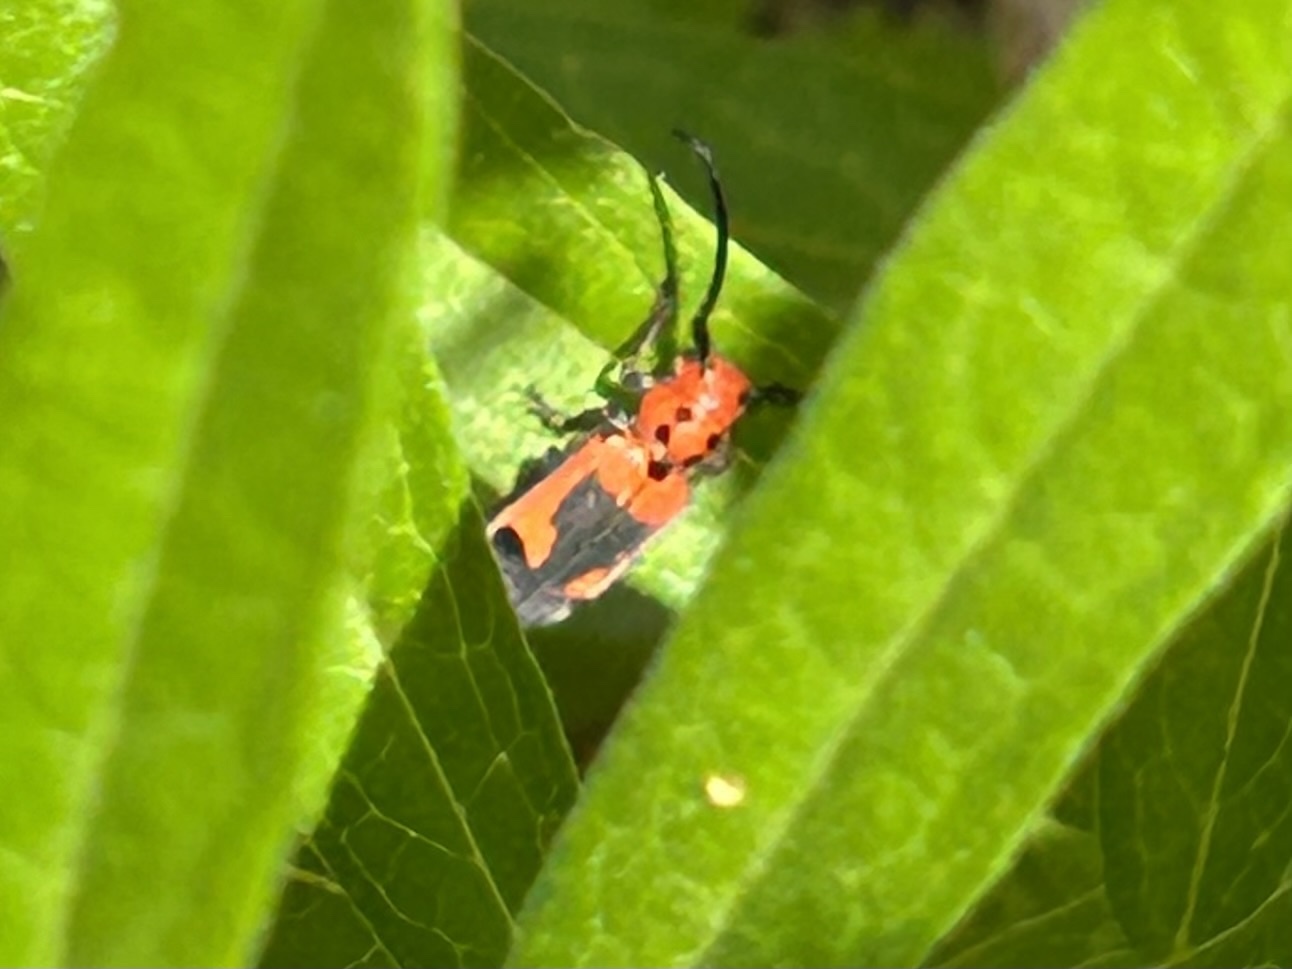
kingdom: Animalia
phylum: Arthropoda
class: Insecta
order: Coleoptera
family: Cerambycidae
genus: Tetraopes
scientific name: Tetraopes melanurus
